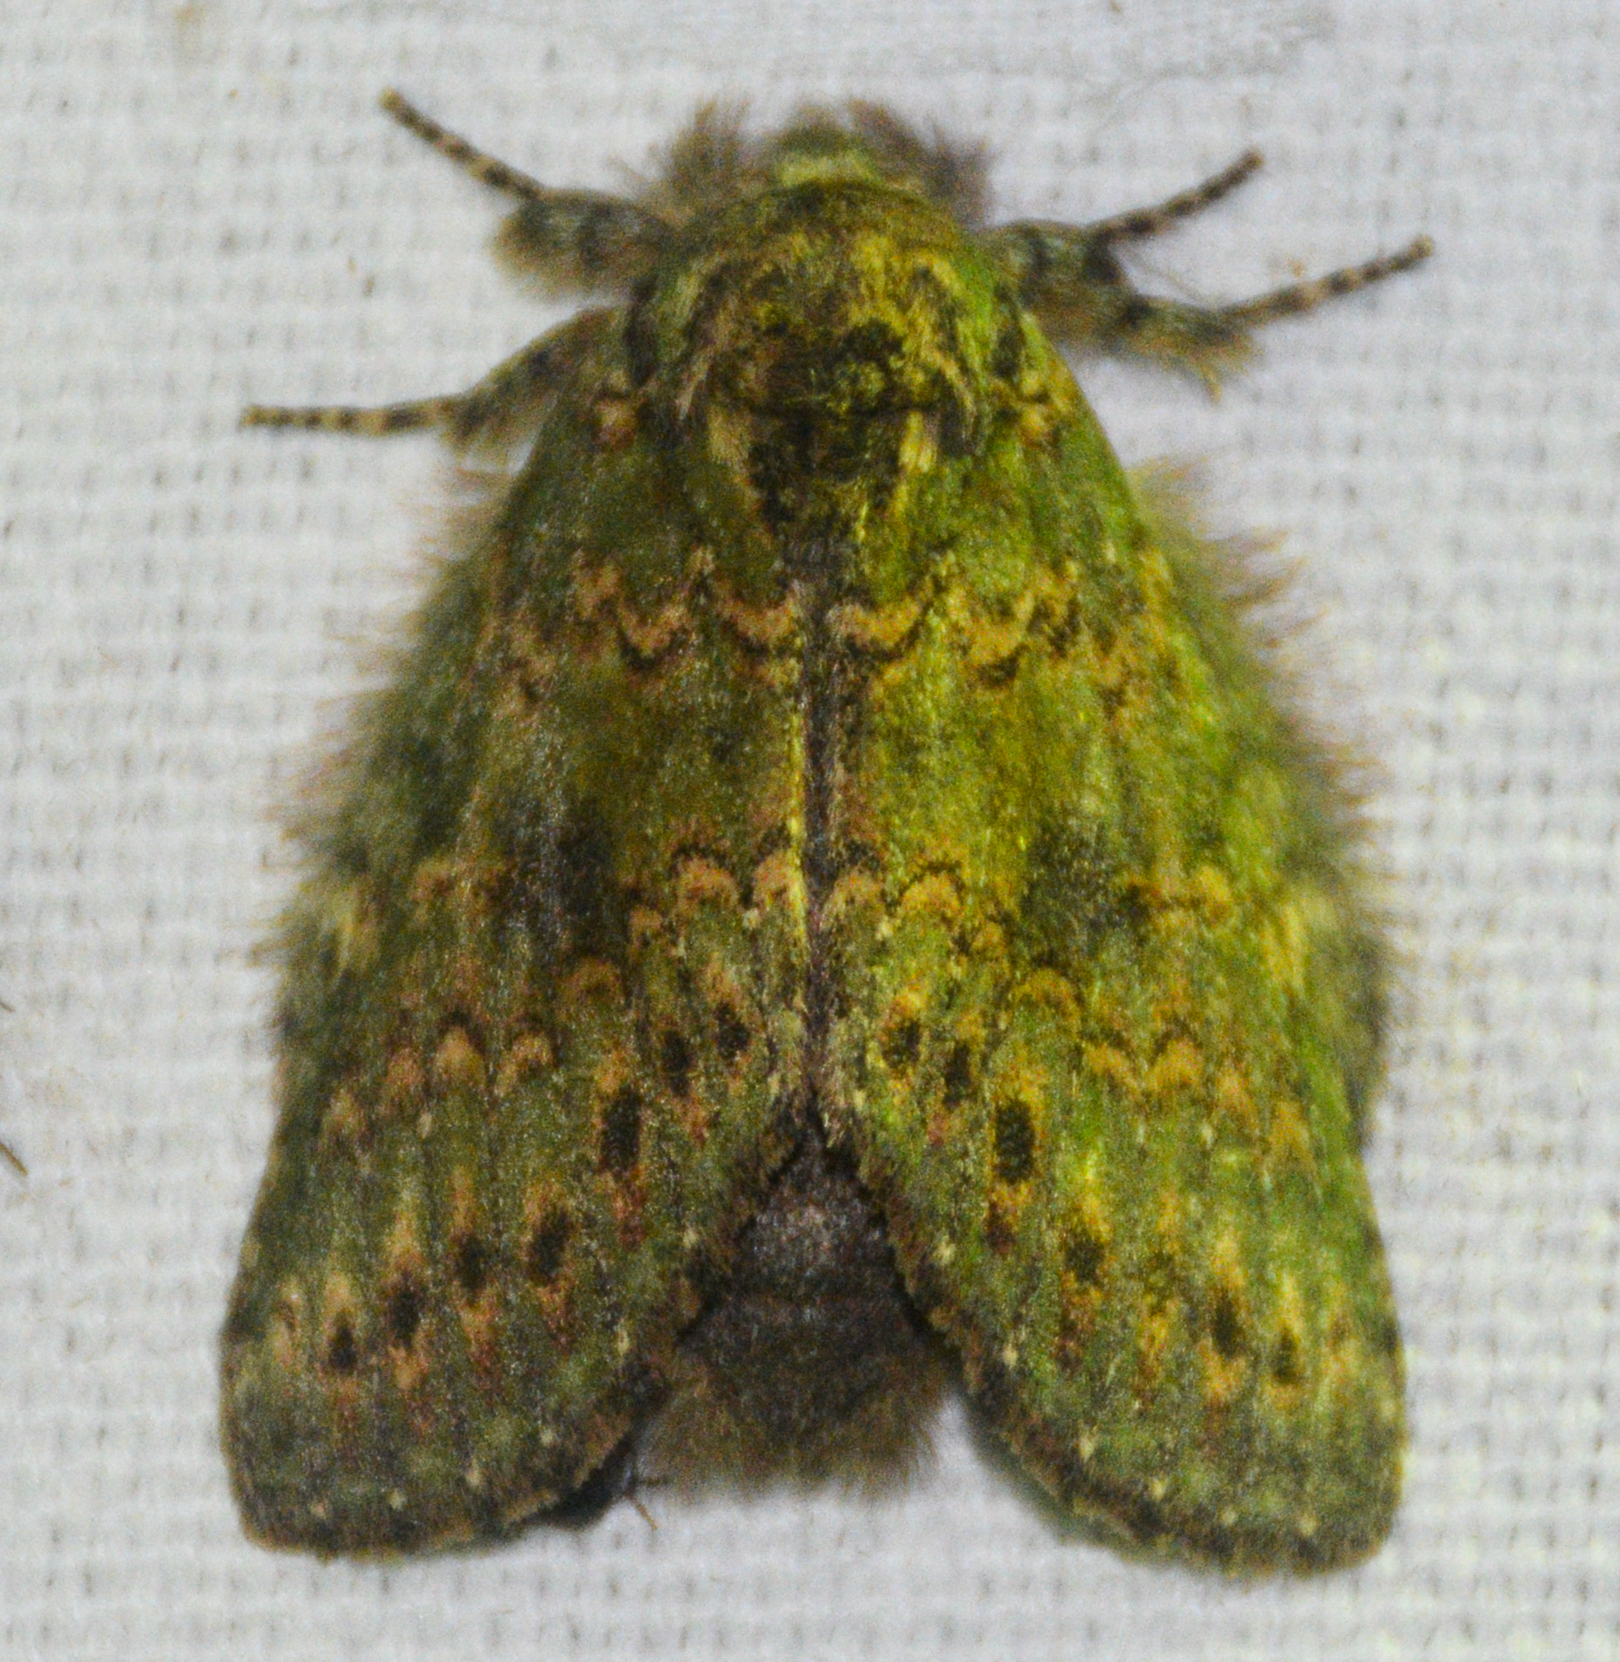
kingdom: Animalia
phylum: Arthropoda
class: Insecta
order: Lepidoptera
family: Notodontidae
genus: Disphragis
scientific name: Disphragis Cecrita biundata
